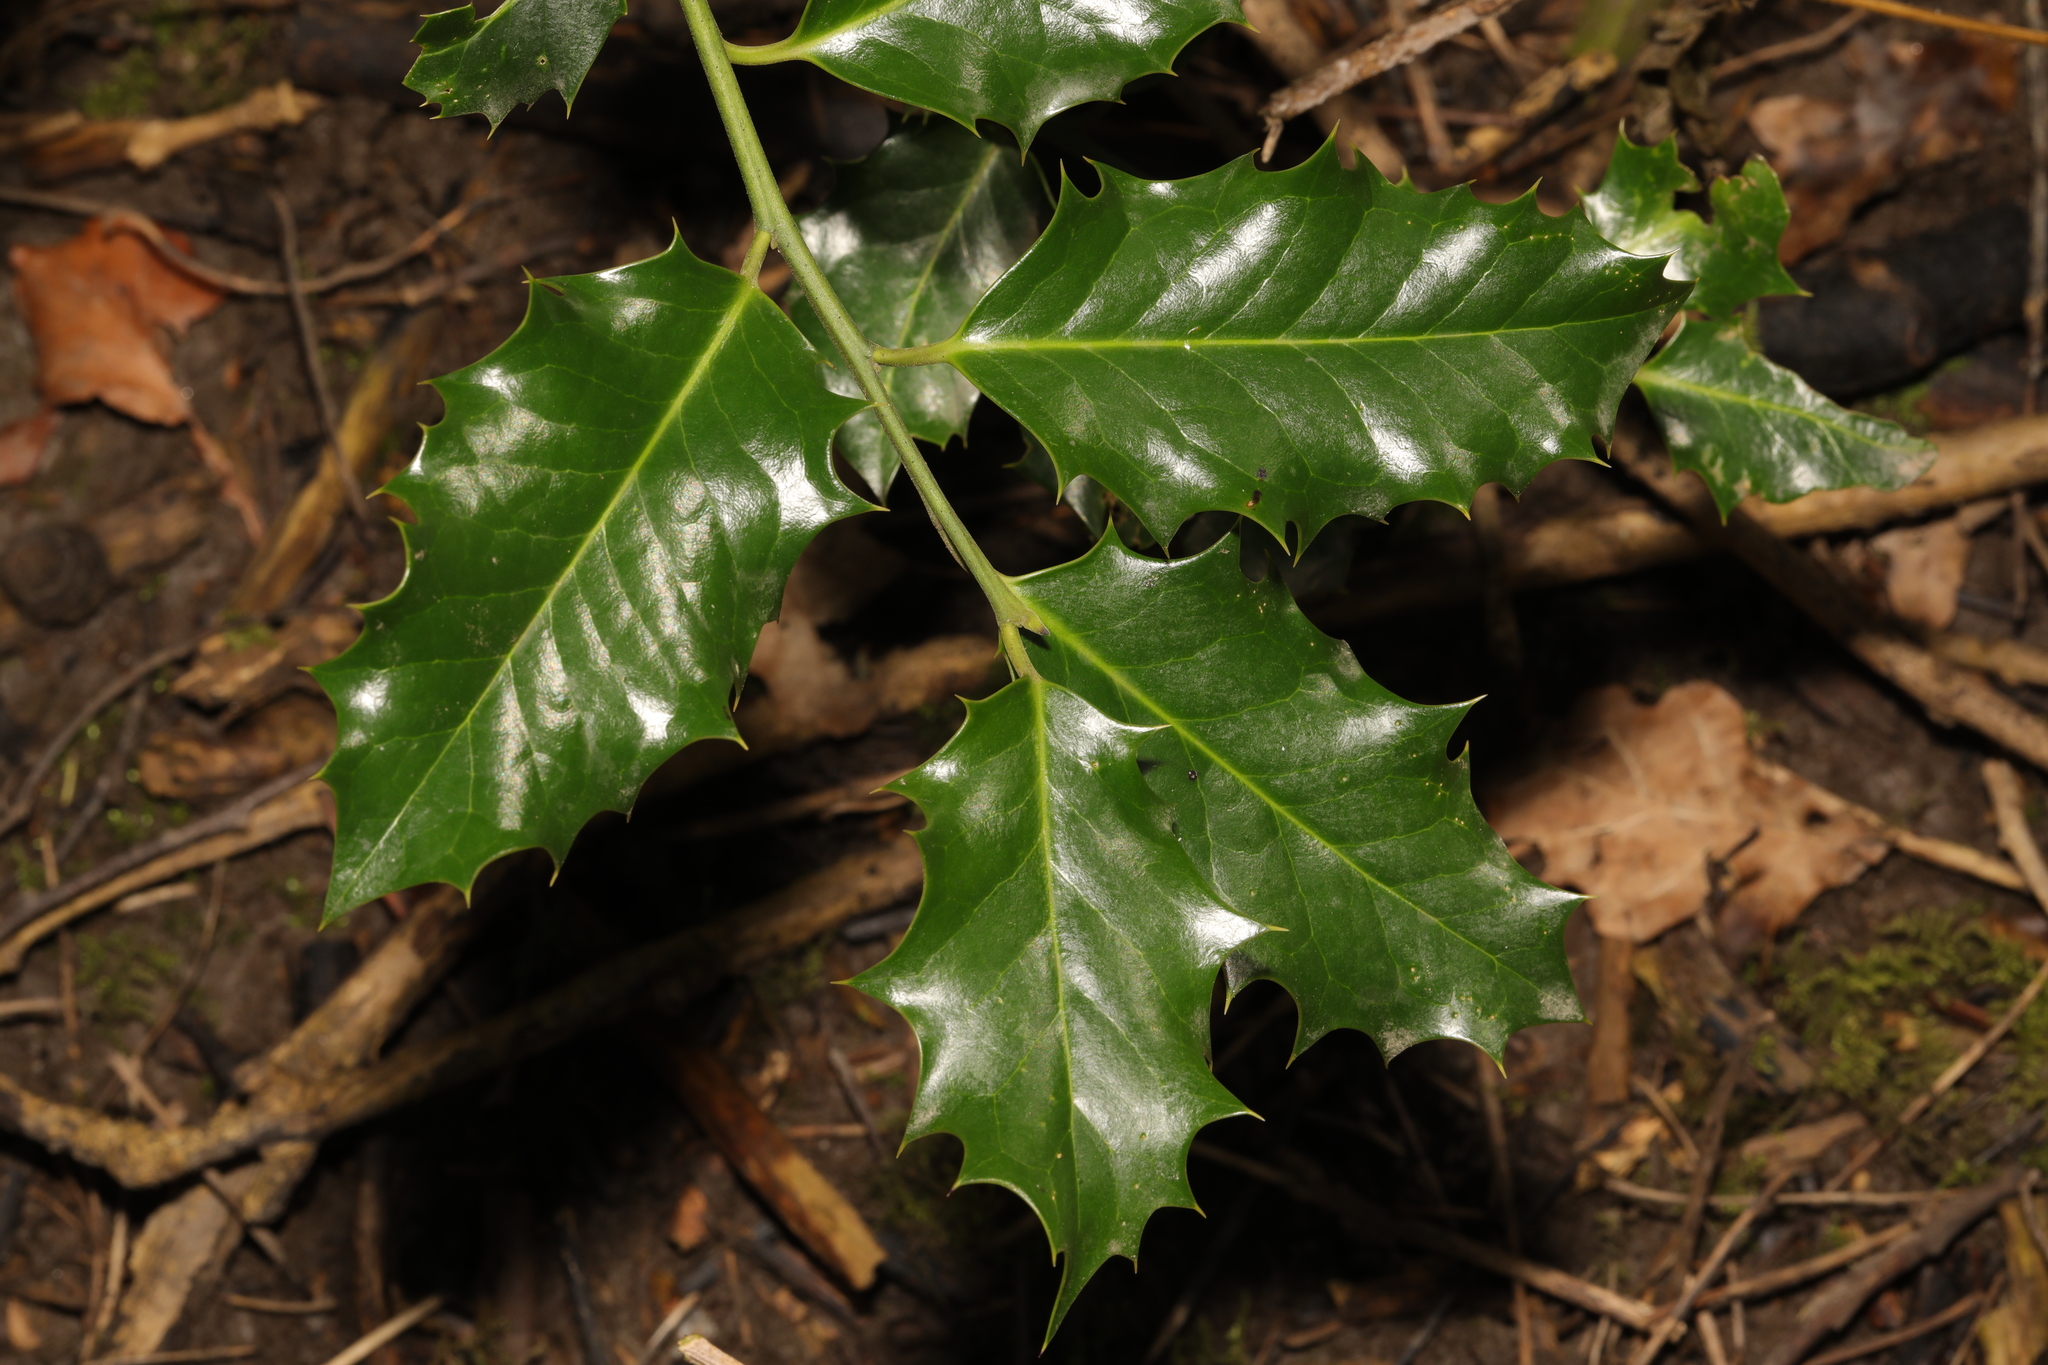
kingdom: Plantae
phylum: Tracheophyta
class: Magnoliopsida
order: Aquifoliales
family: Aquifoliaceae
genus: Ilex
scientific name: Ilex aquifolium
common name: English holly
